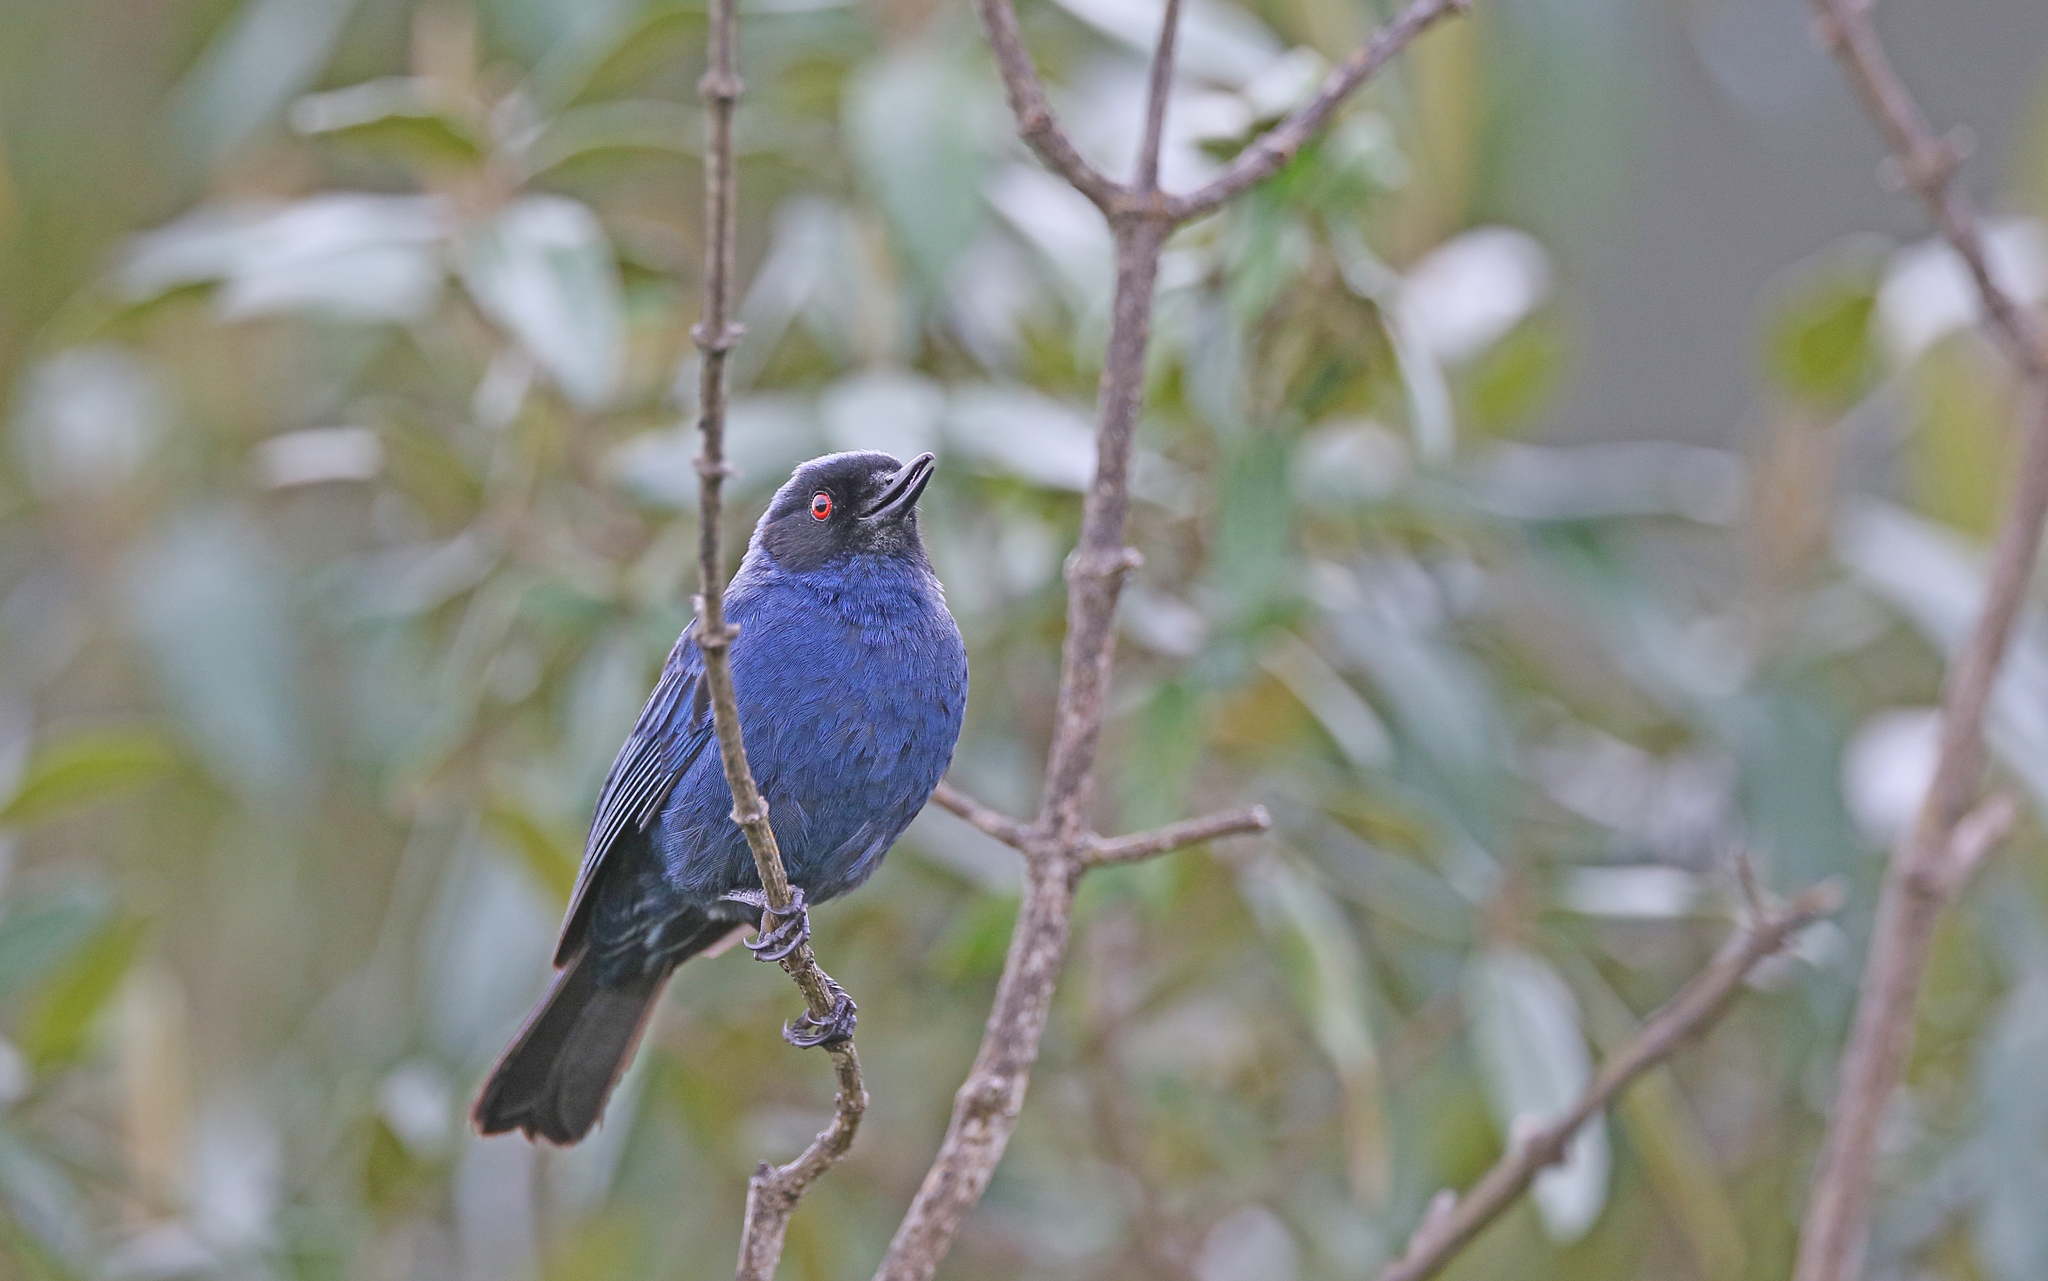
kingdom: Animalia
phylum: Chordata
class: Aves
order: Passeriformes
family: Thraupidae
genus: Diglossa
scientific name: Diglossa cyanea
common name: Masked flowerpiercer
